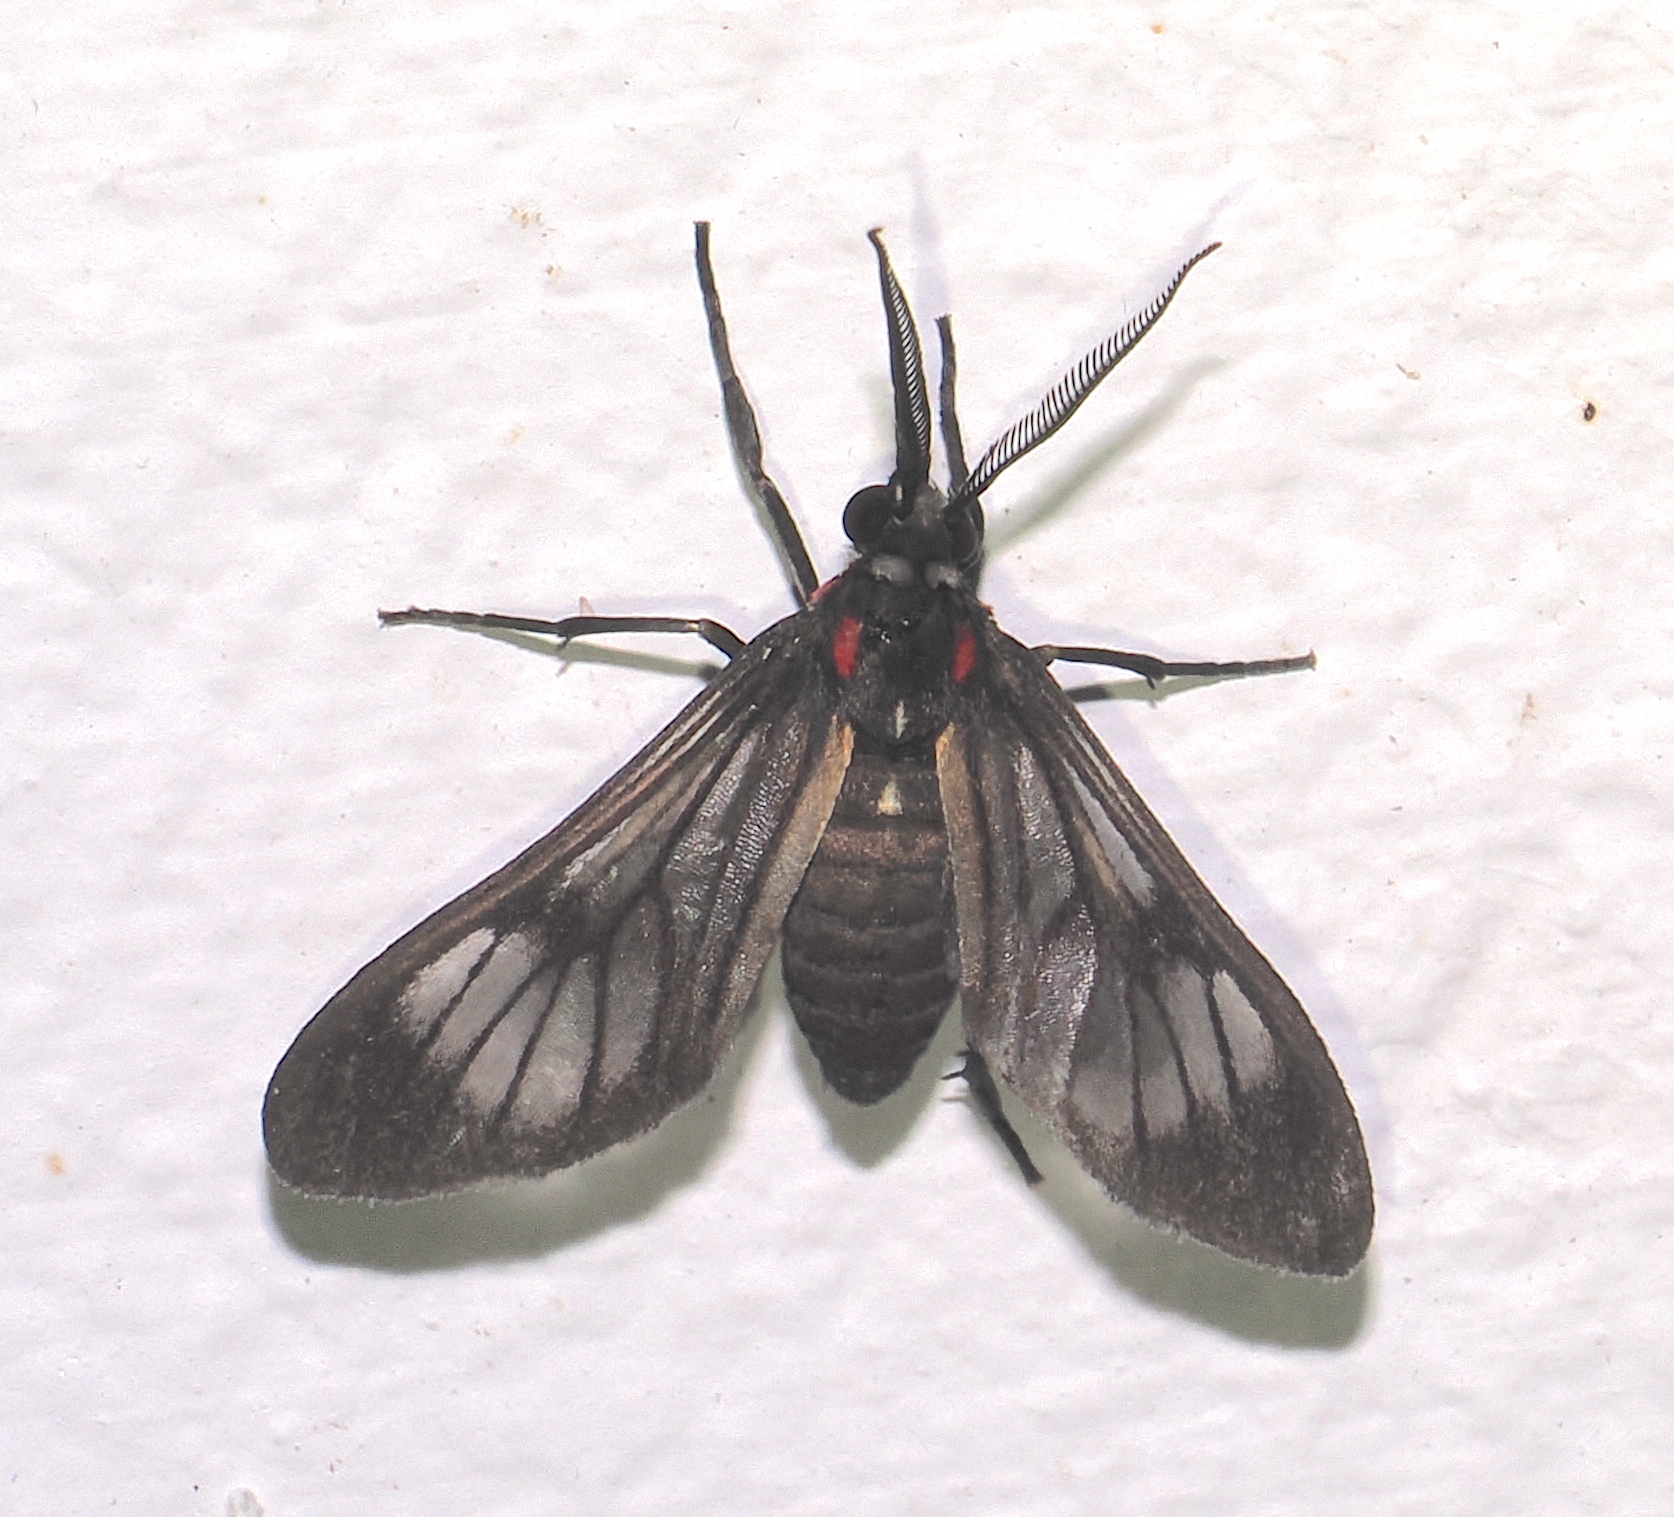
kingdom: Animalia
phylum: Arthropoda
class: Insecta
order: Lepidoptera
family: Erebidae
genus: Saurita
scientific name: Saurita arimensis
